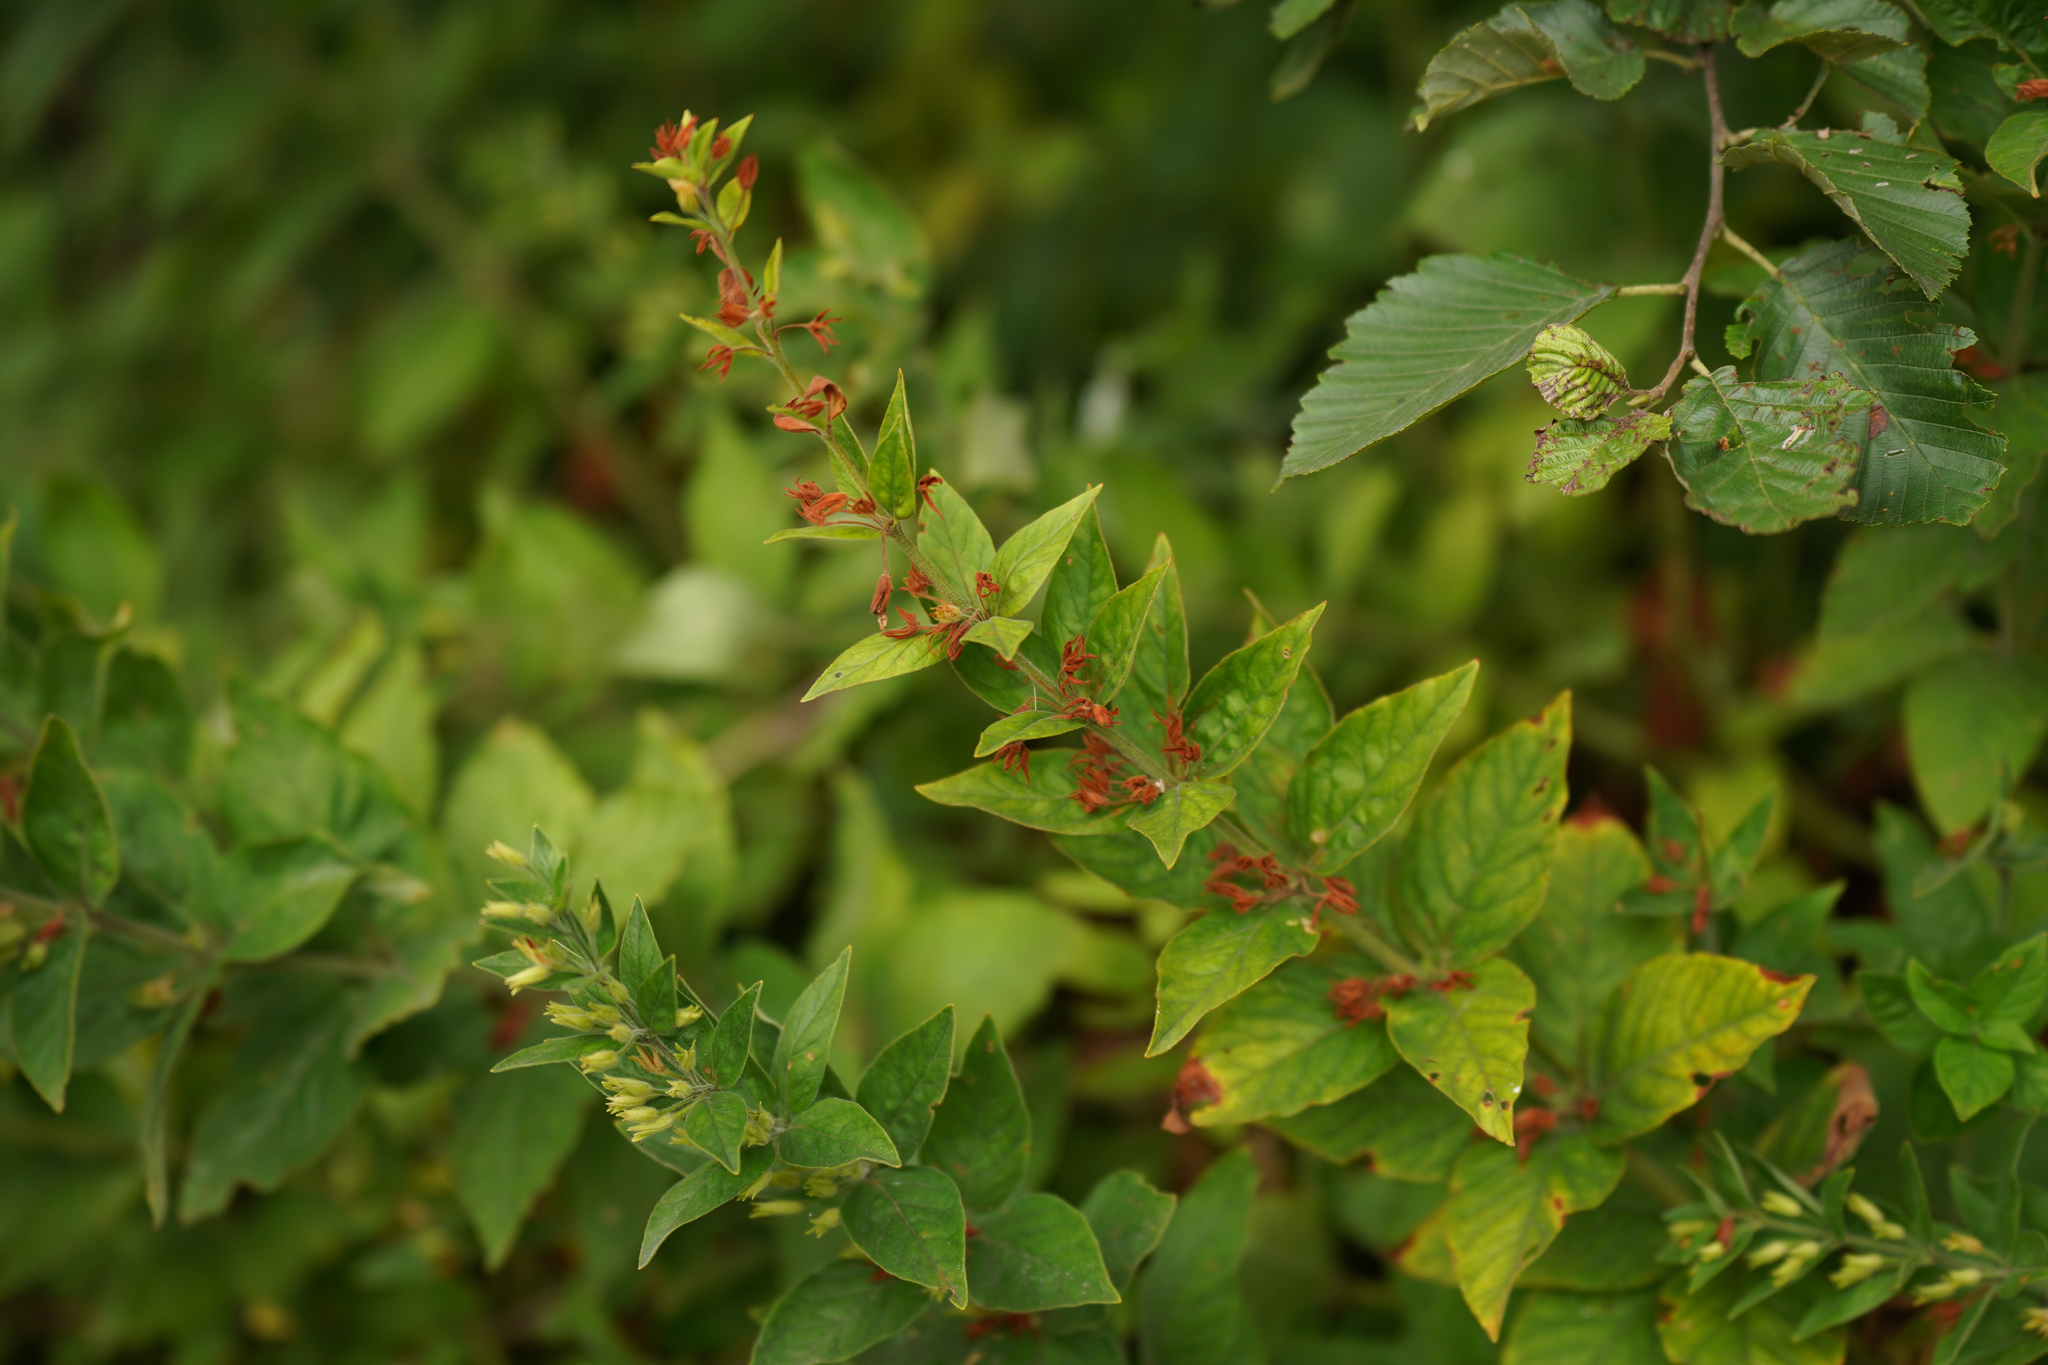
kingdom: Plantae
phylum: Tracheophyta
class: Magnoliopsida
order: Ericales
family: Primulaceae
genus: Lysimachia
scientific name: Lysimachia punctata
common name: Dotted loosestrife
